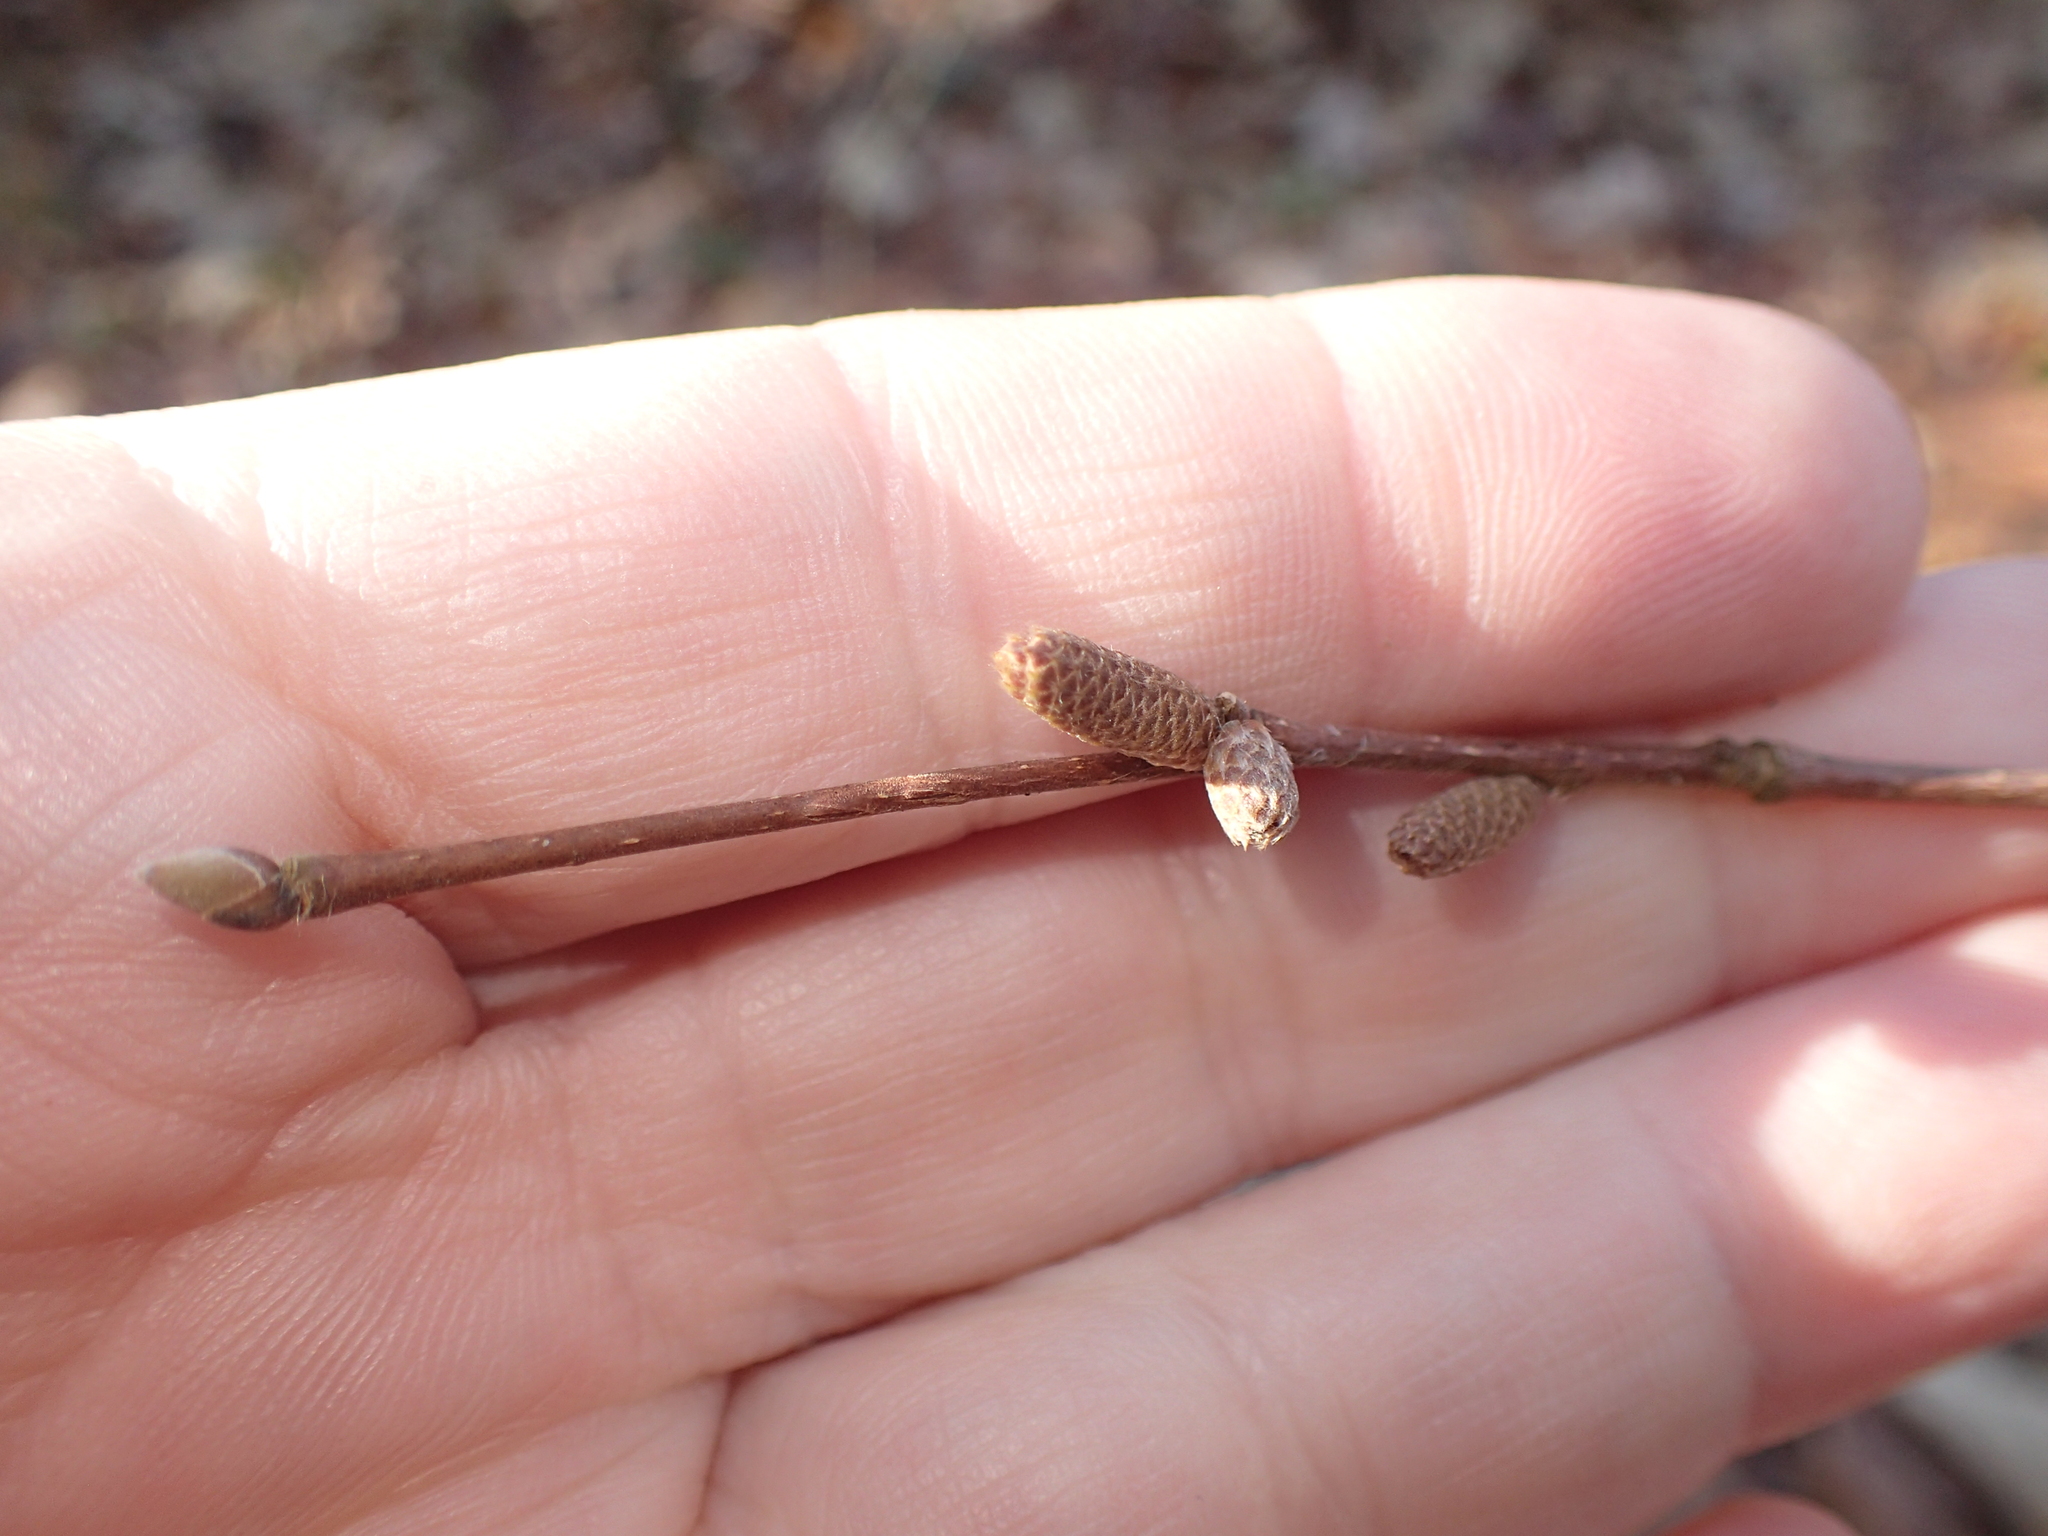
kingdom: Plantae
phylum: Tracheophyta
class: Magnoliopsida
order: Fagales
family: Betulaceae
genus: Corylus
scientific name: Corylus cornuta
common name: Beaked hazel
